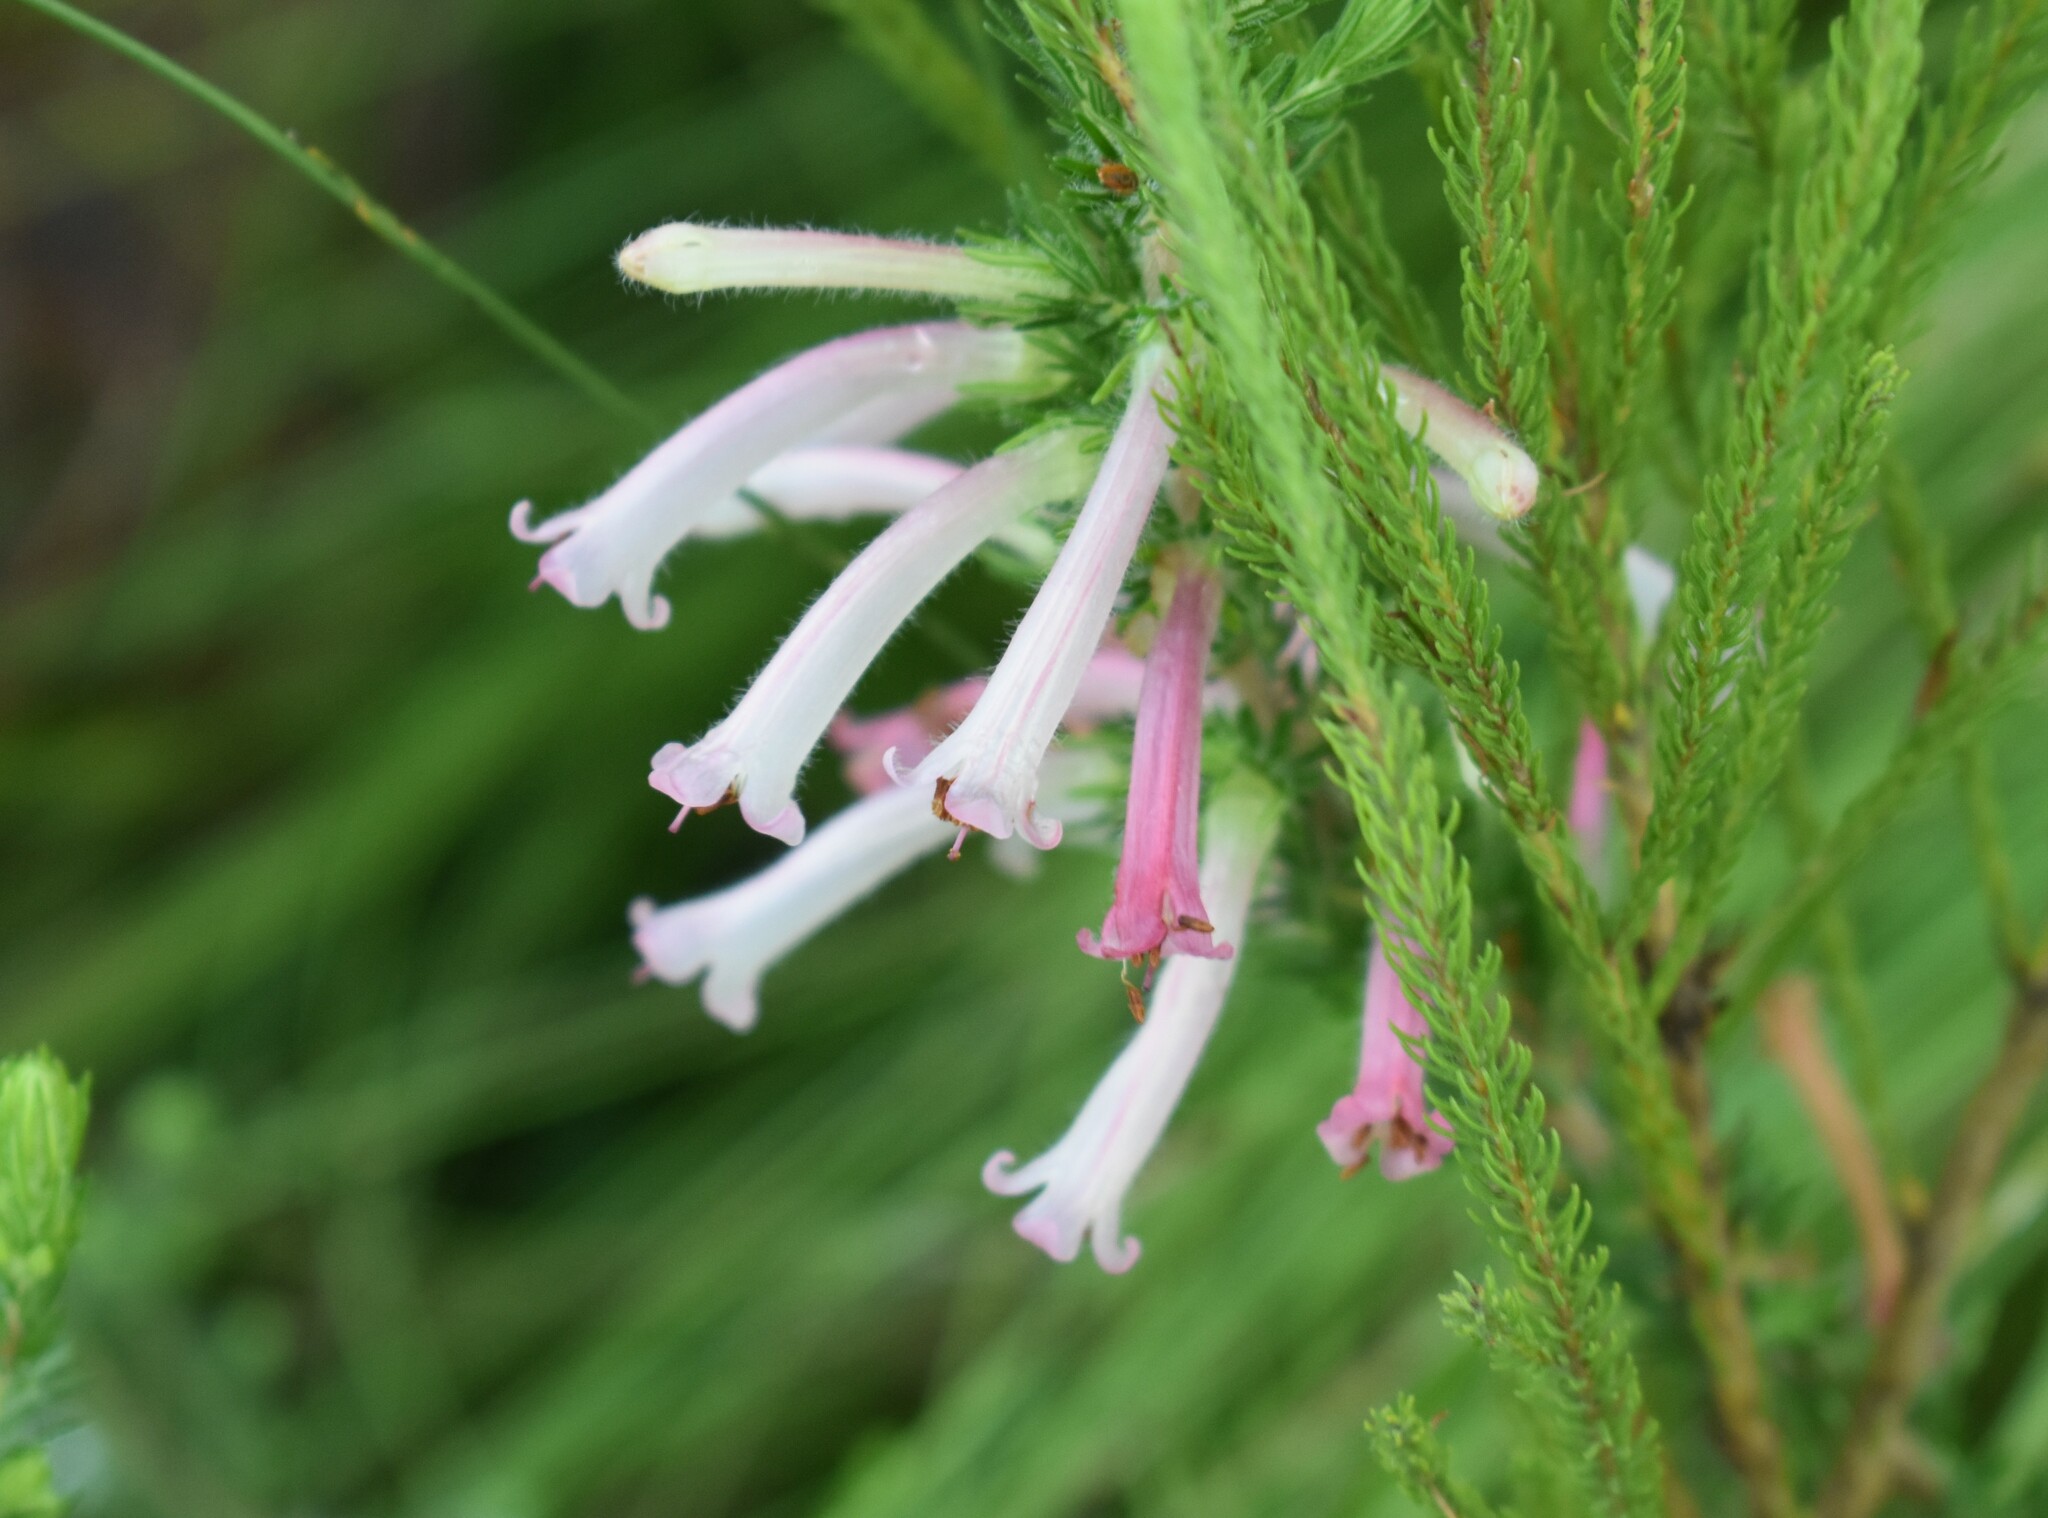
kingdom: Plantae
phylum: Tracheophyta
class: Magnoliopsida
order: Ericales
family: Ericaceae
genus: Erica
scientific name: Erica curviflora
